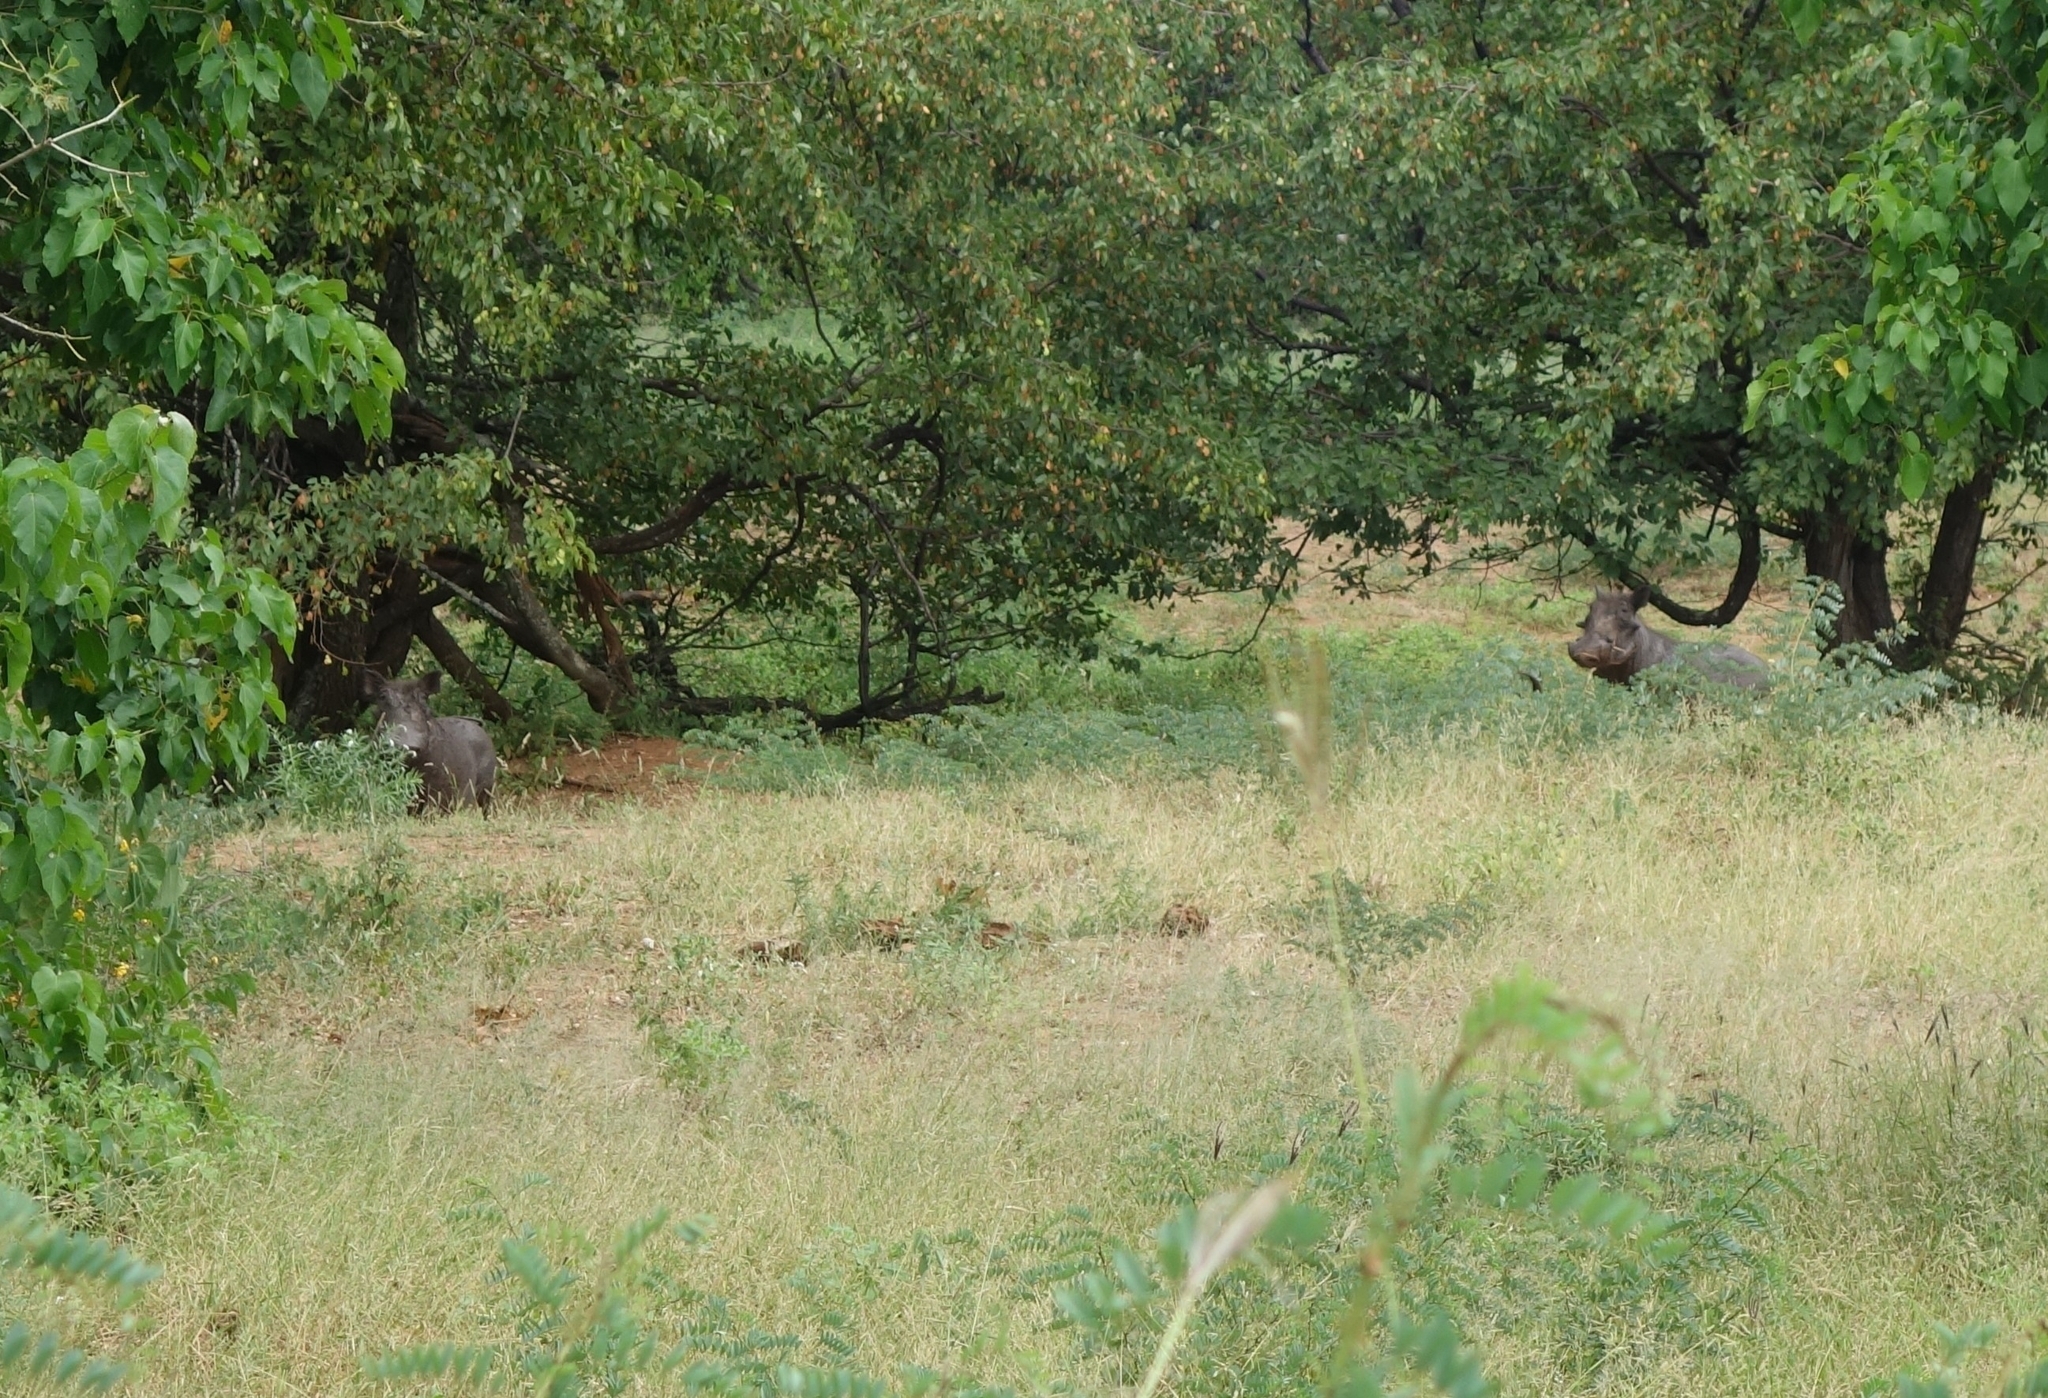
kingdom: Animalia
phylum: Chordata
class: Mammalia
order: Artiodactyla
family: Suidae
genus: Phacochoerus
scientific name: Phacochoerus africanus
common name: Common warthog
